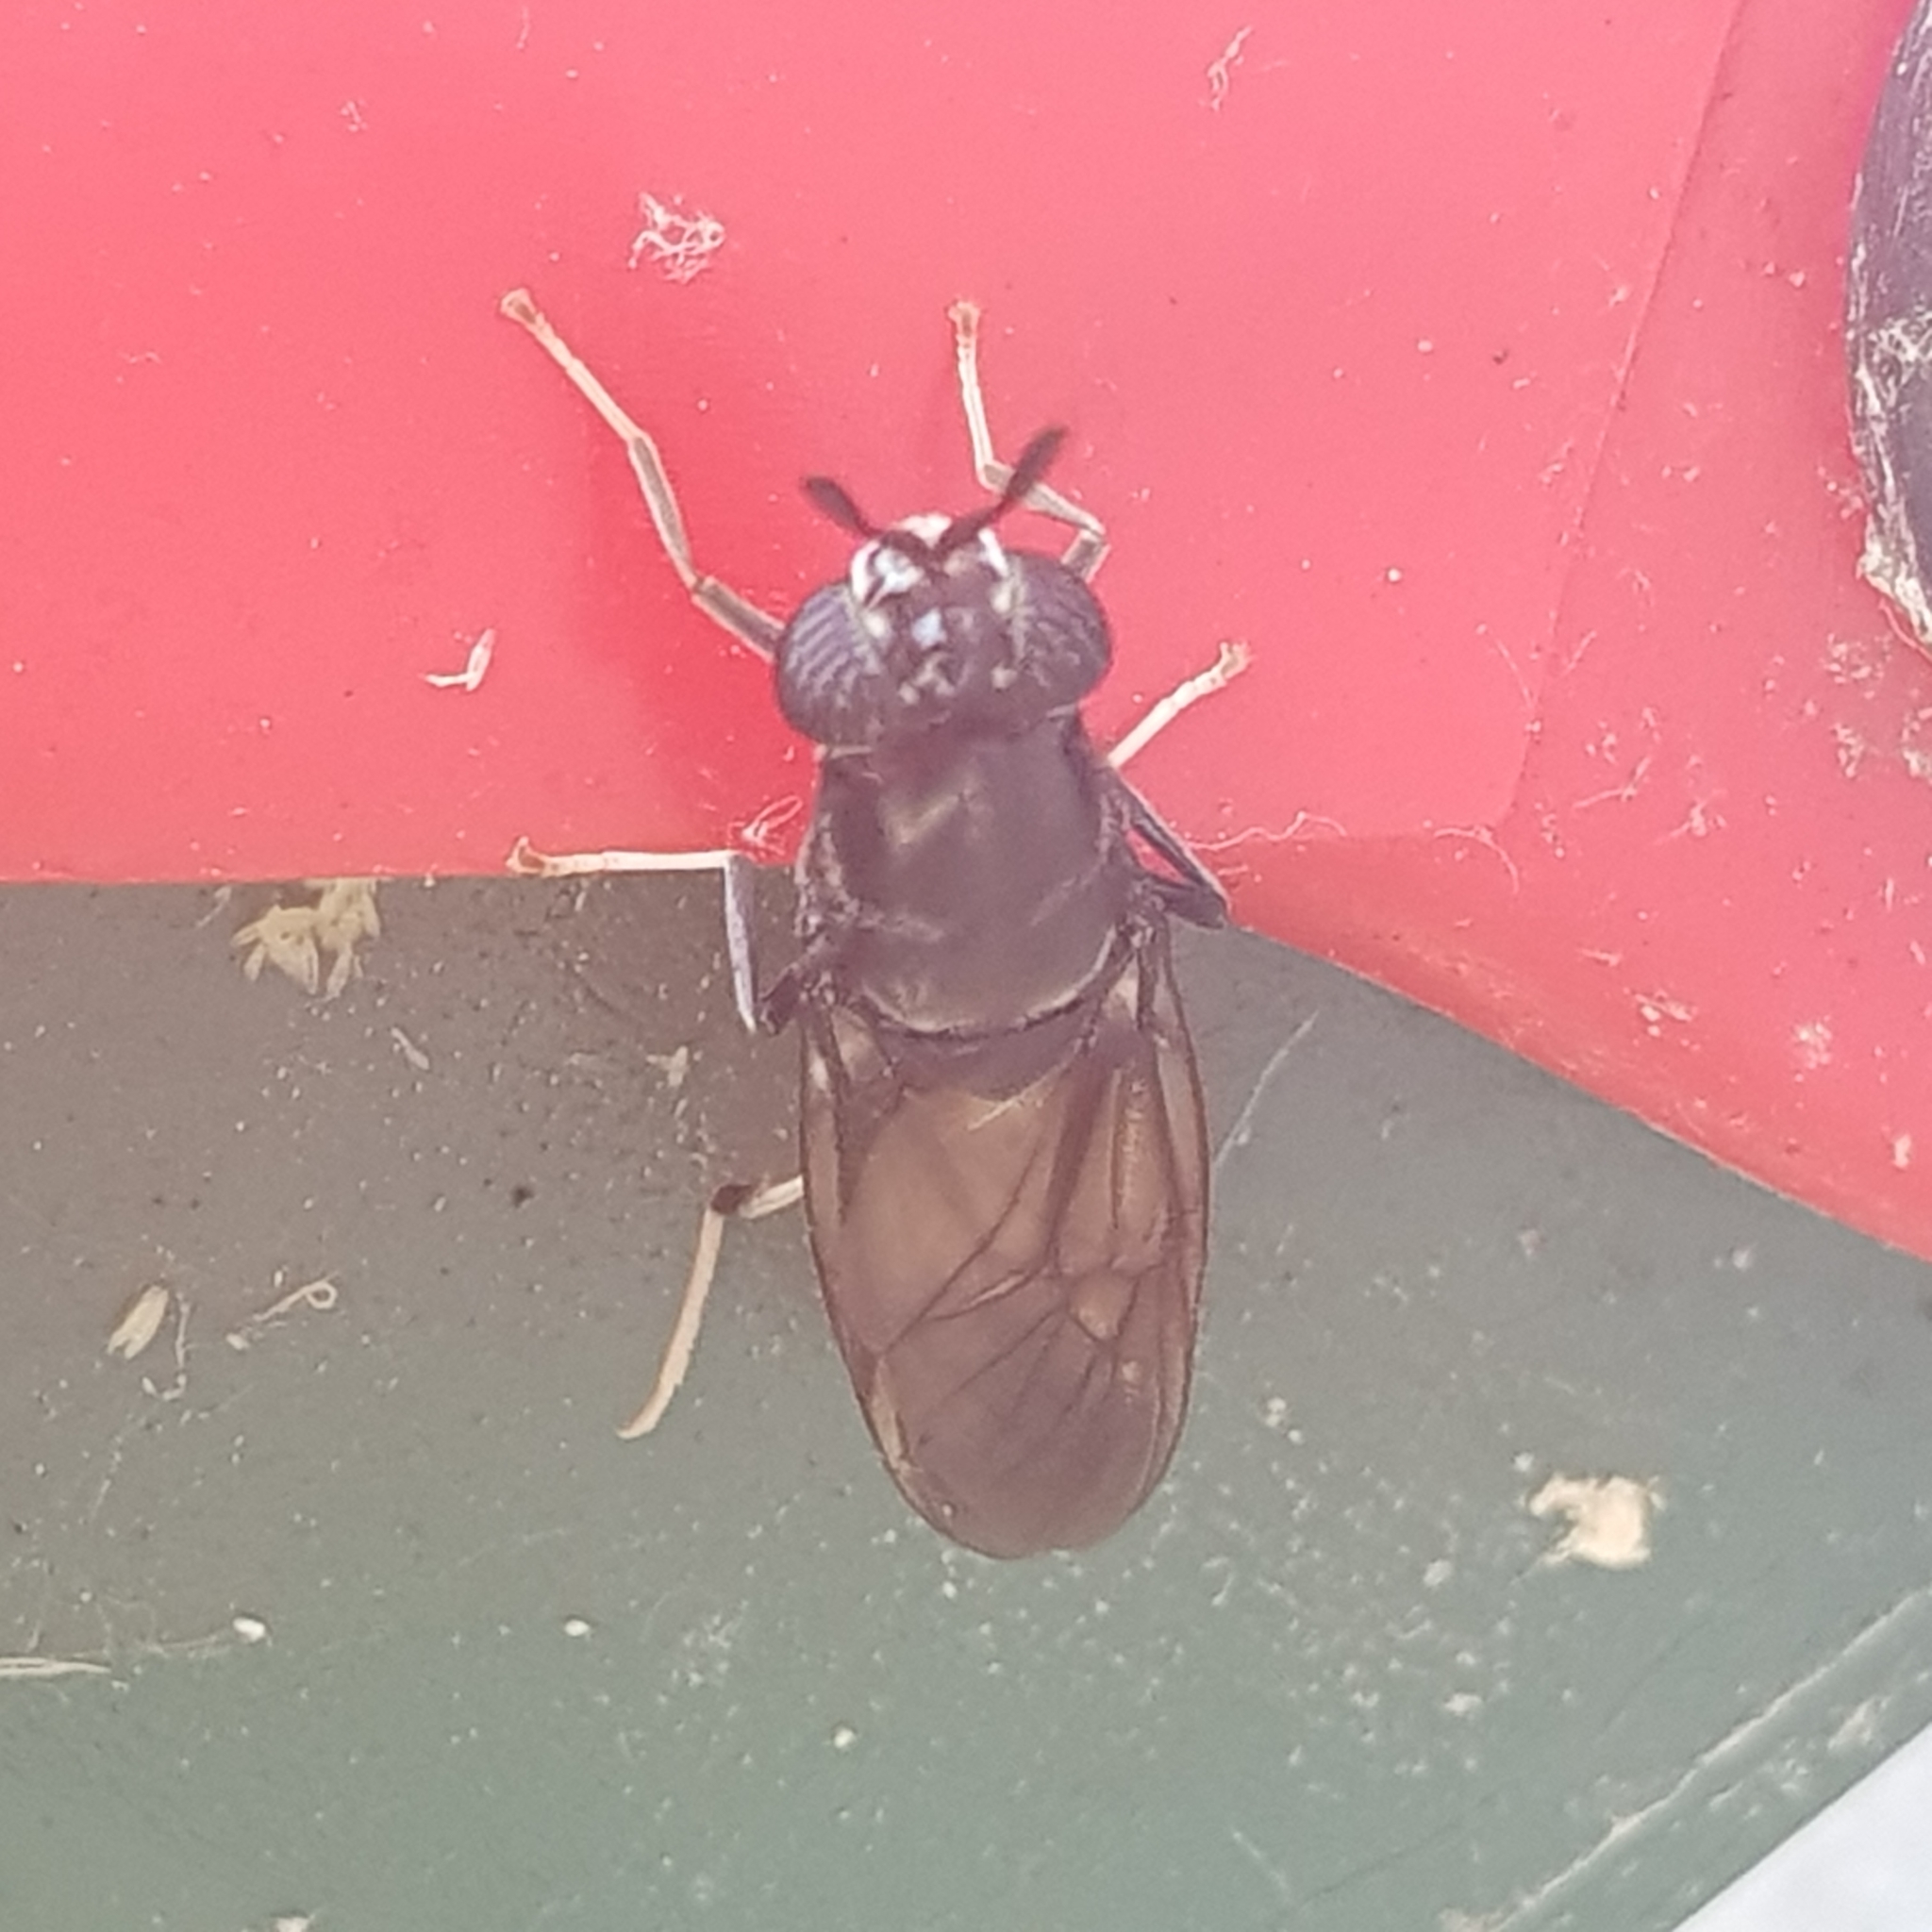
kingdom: Animalia
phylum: Arthropoda
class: Insecta
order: Diptera
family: Stratiomyidae
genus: Hermetia
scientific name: Hermetia illucens
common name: Black soldier fly
